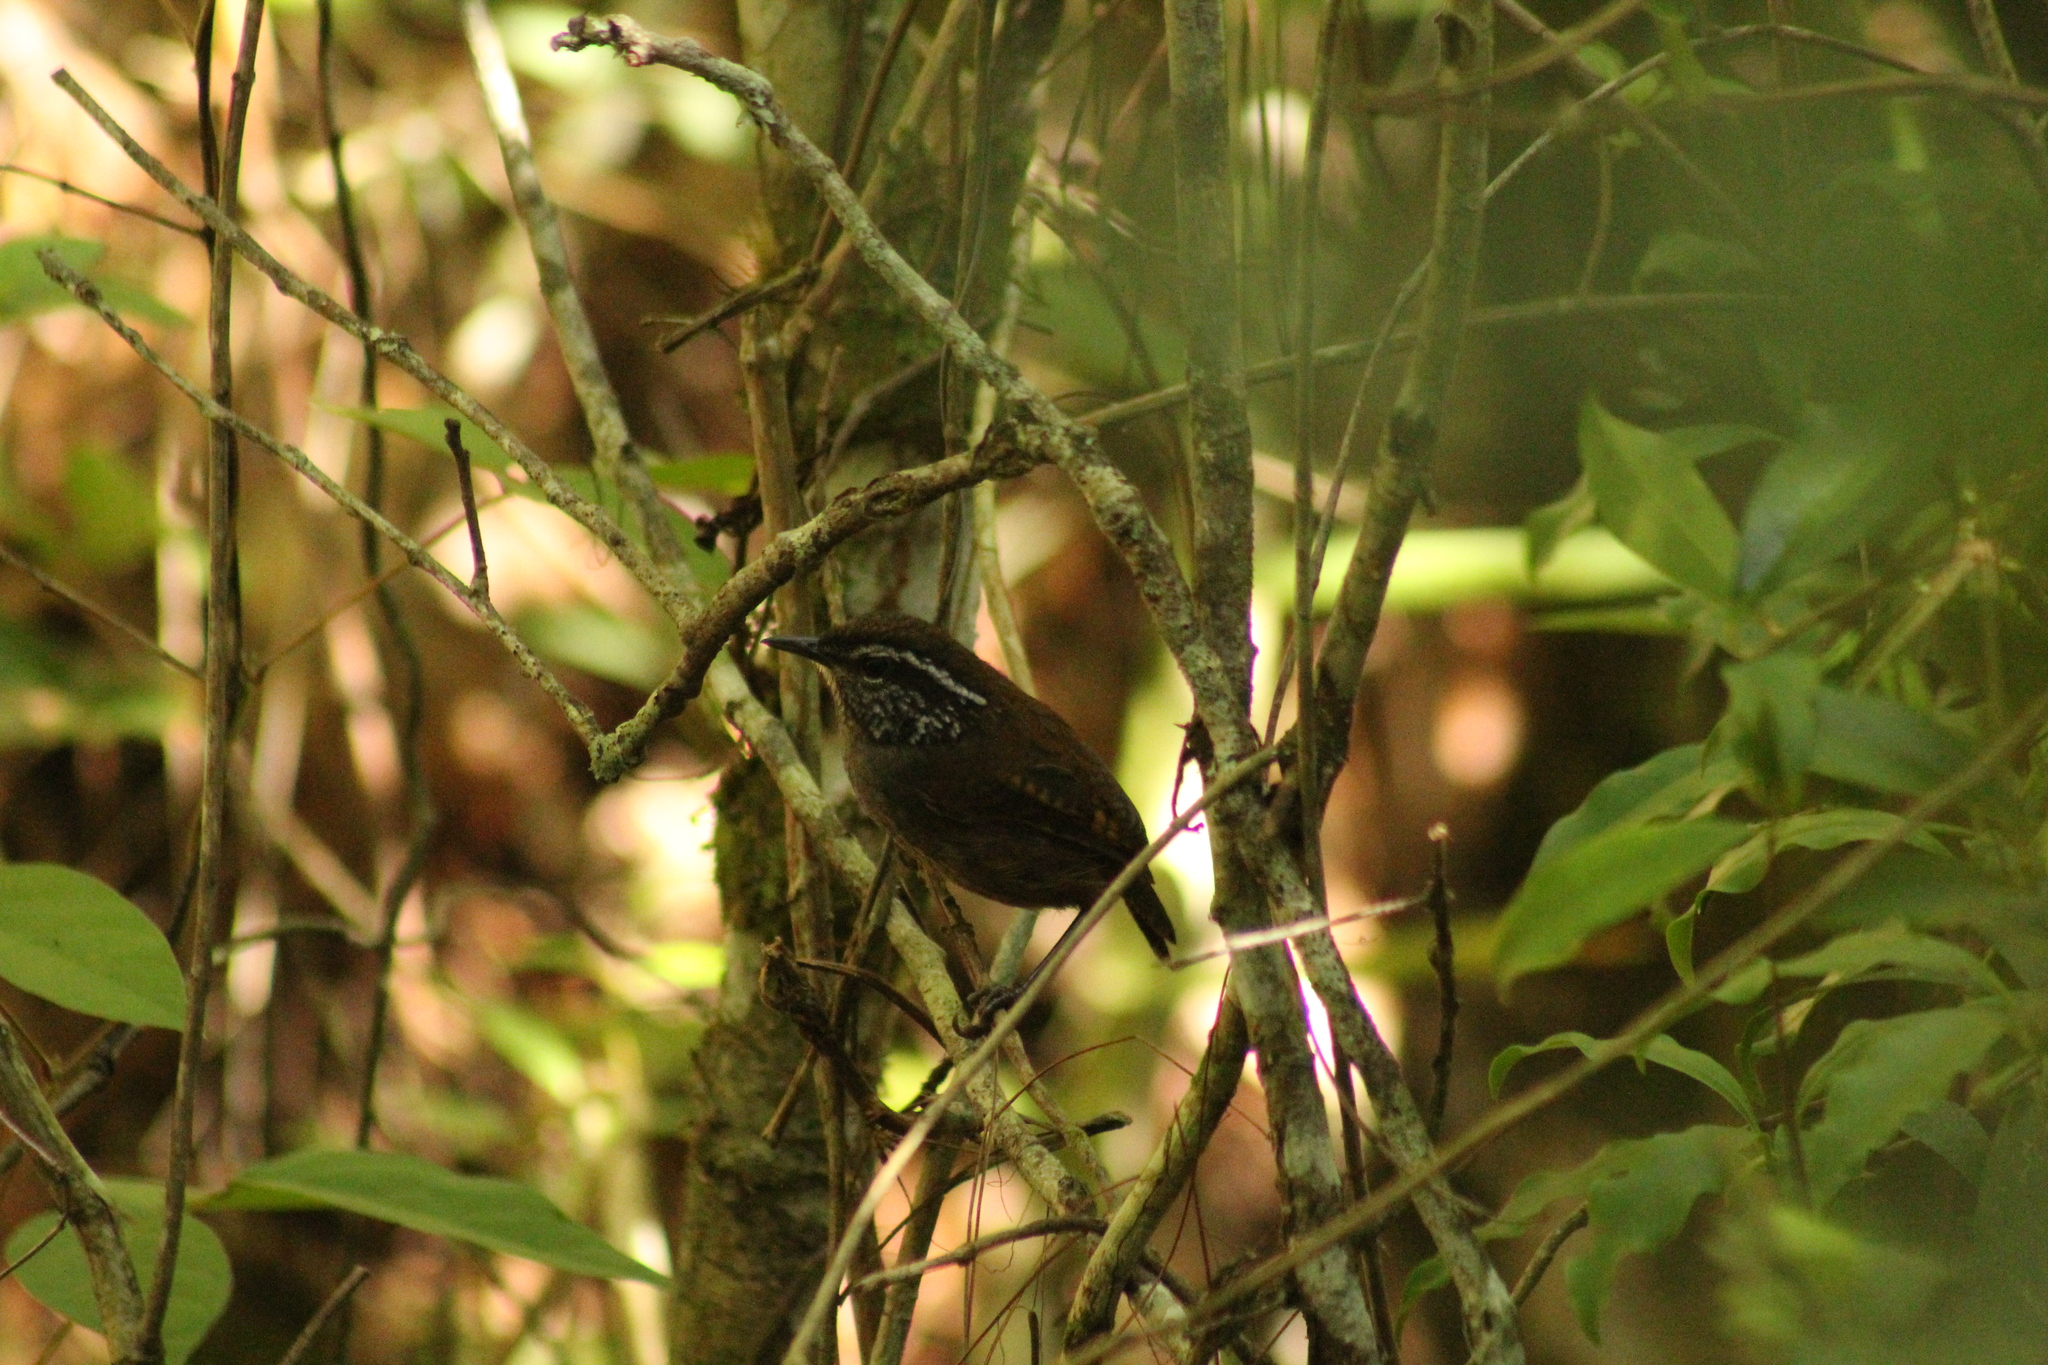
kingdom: Animalia
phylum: Chordata
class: Aves
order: Passeriformes
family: Troglodytidae
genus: Pheugopedius
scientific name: Pheugopedius maculipectus
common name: Spot-breasted wren
